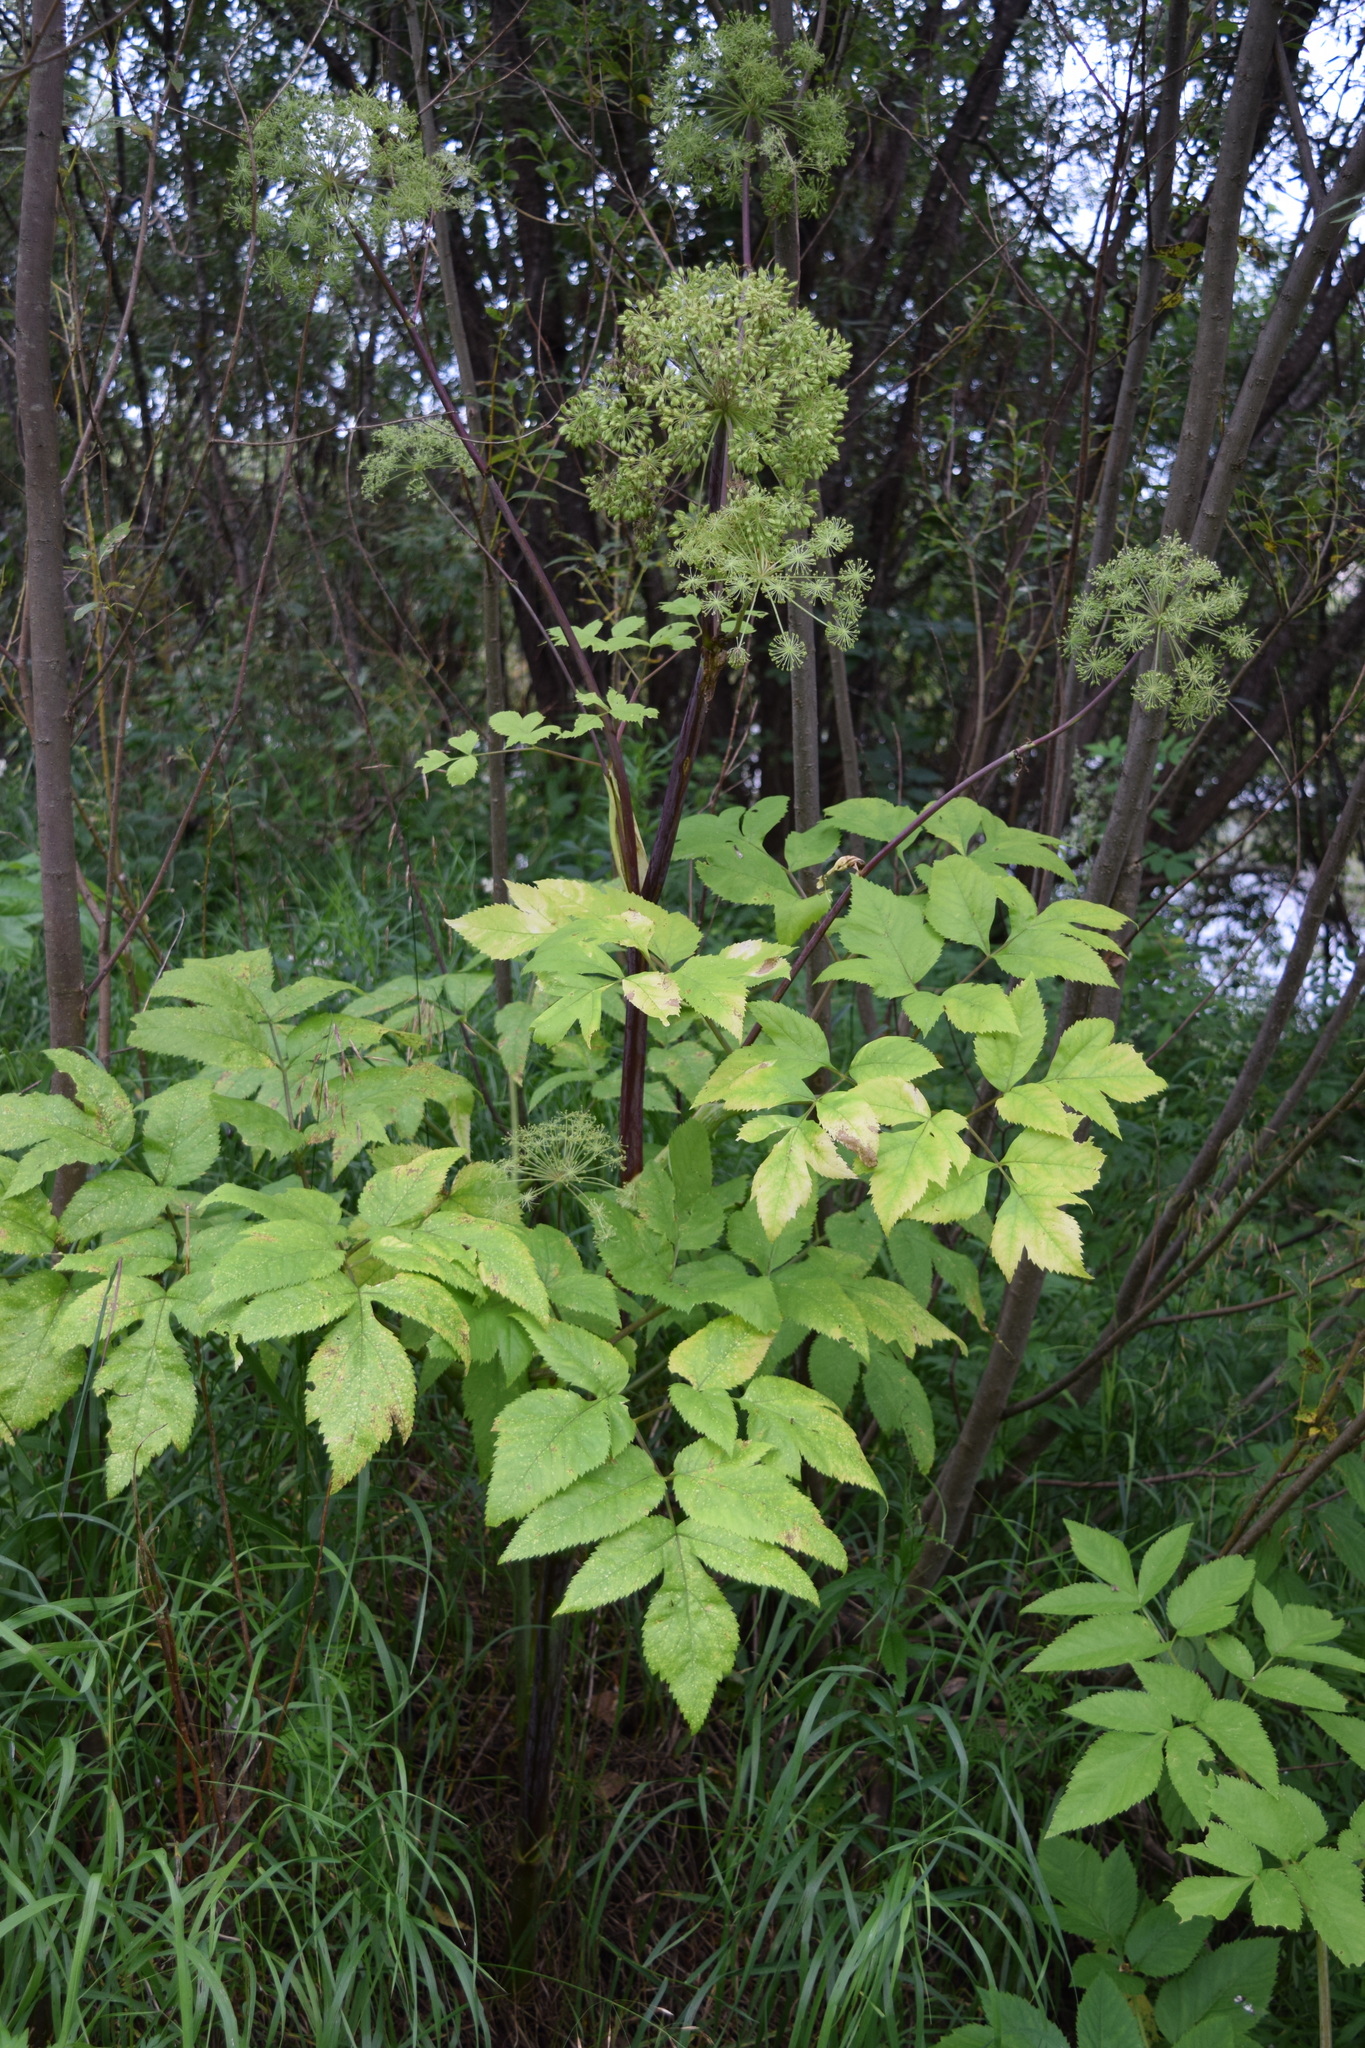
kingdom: Plantae
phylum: Tracheophyta
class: Magnoliopsida
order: Apiales
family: Apiaceae
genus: Angelica
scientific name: Angelica archangelica
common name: Garden angelica
